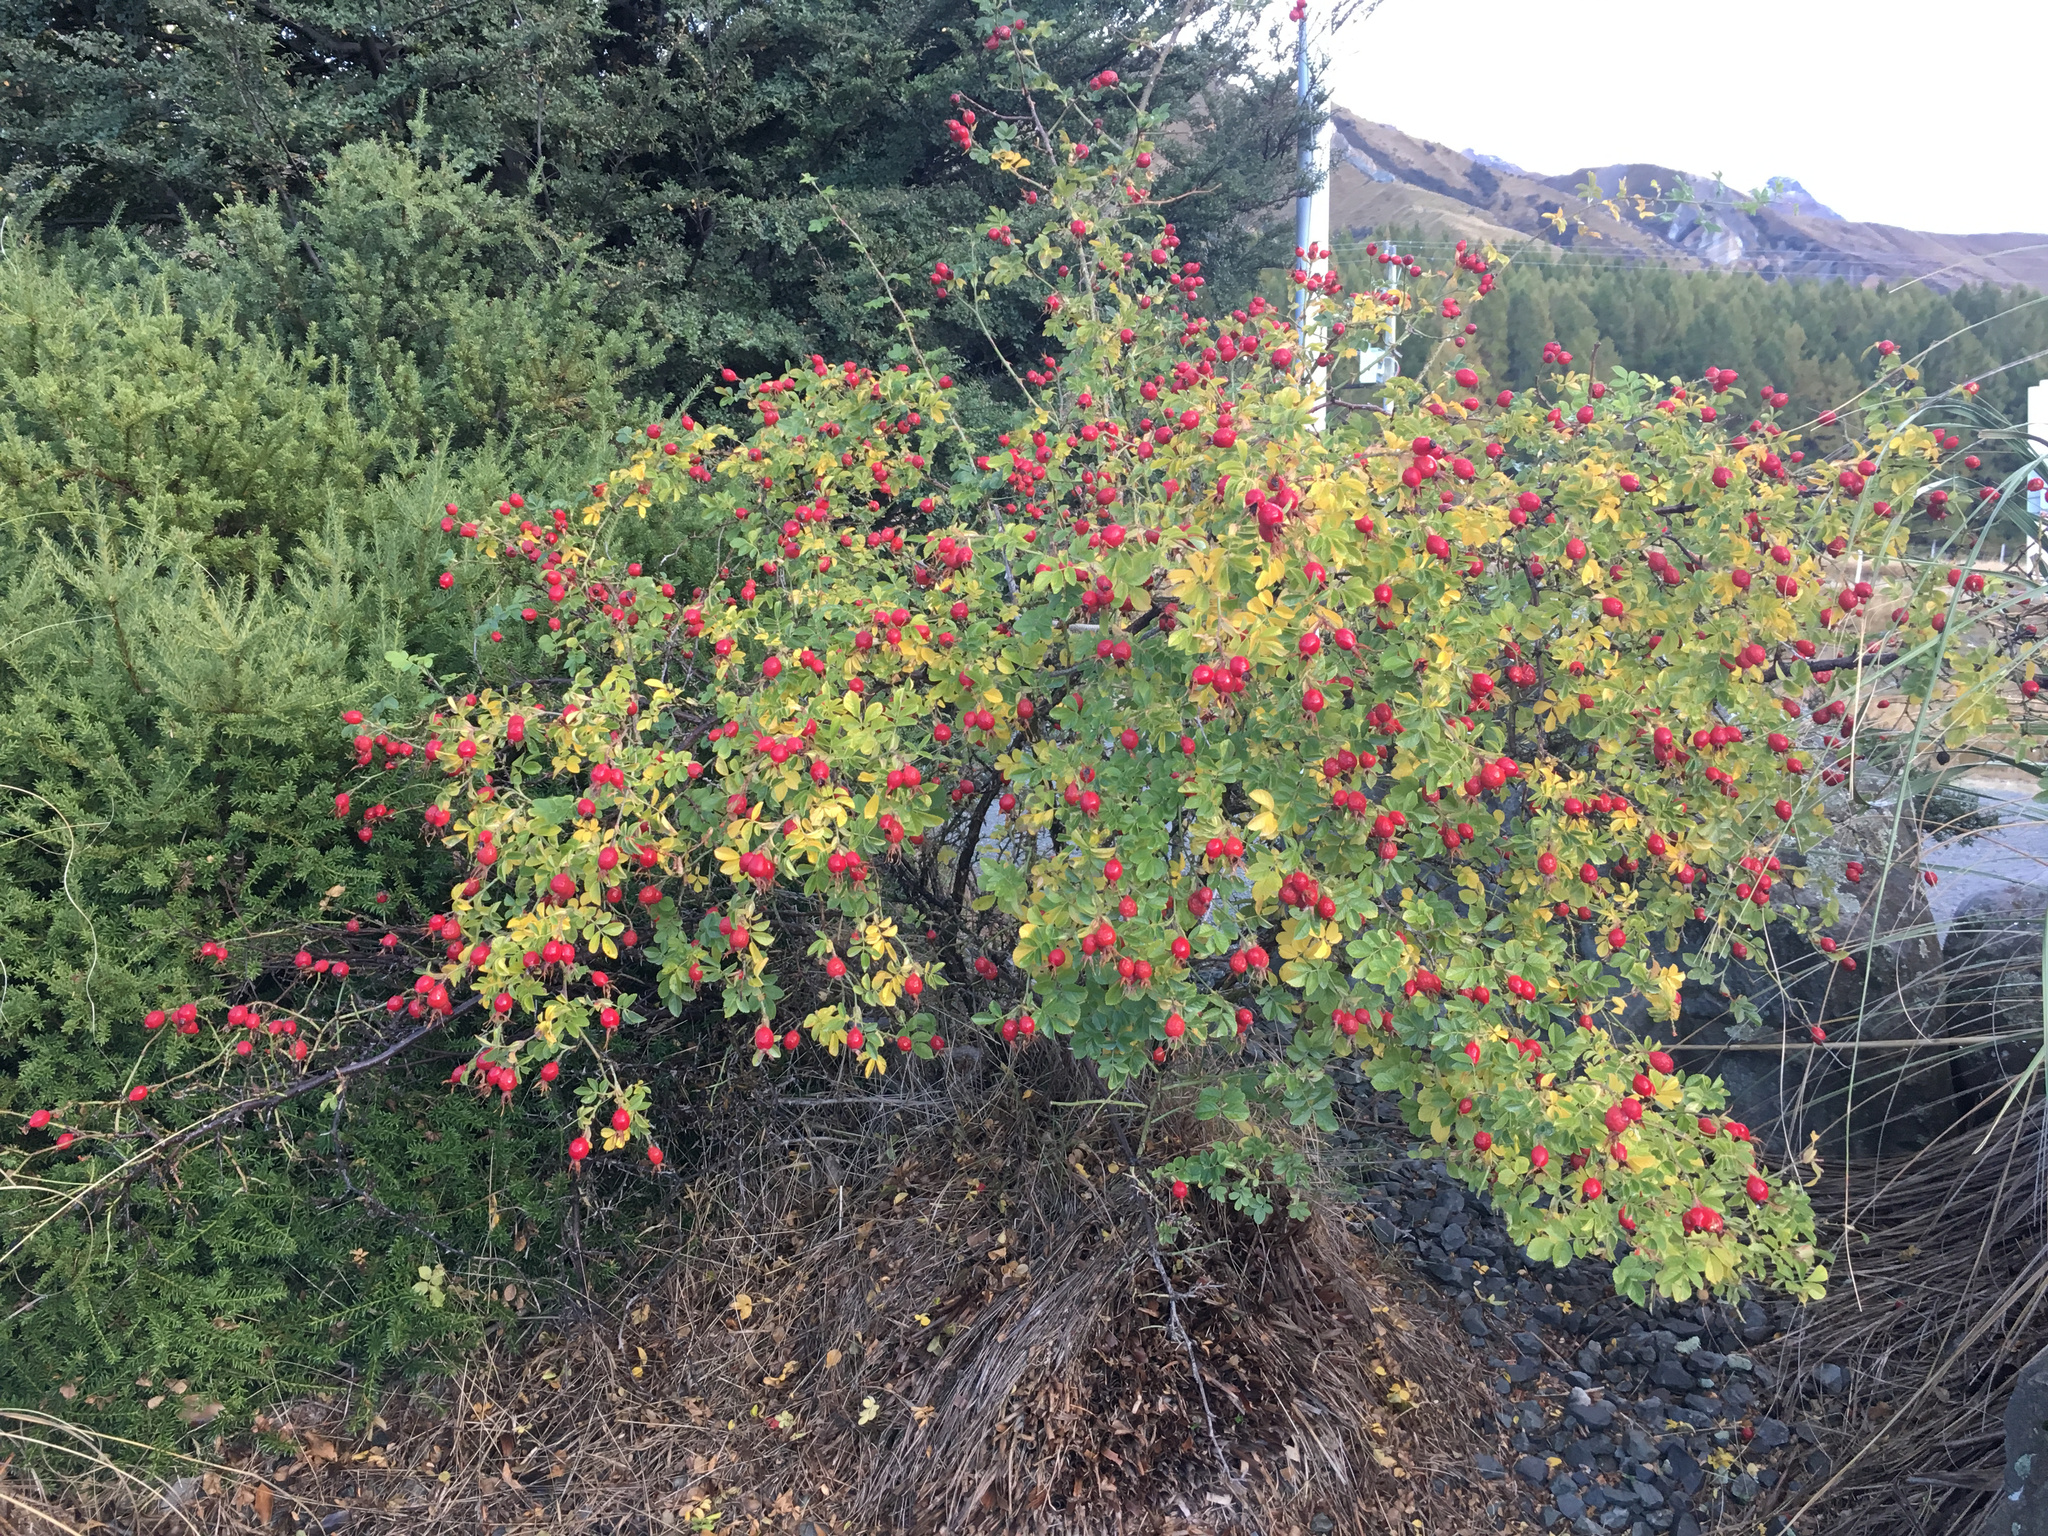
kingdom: Plantae
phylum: Tracheophyta
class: Magnoliopsida
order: Rosales
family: Rosaceae
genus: Rosa
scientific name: Rosa rubiginosa
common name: Sweet-briar
